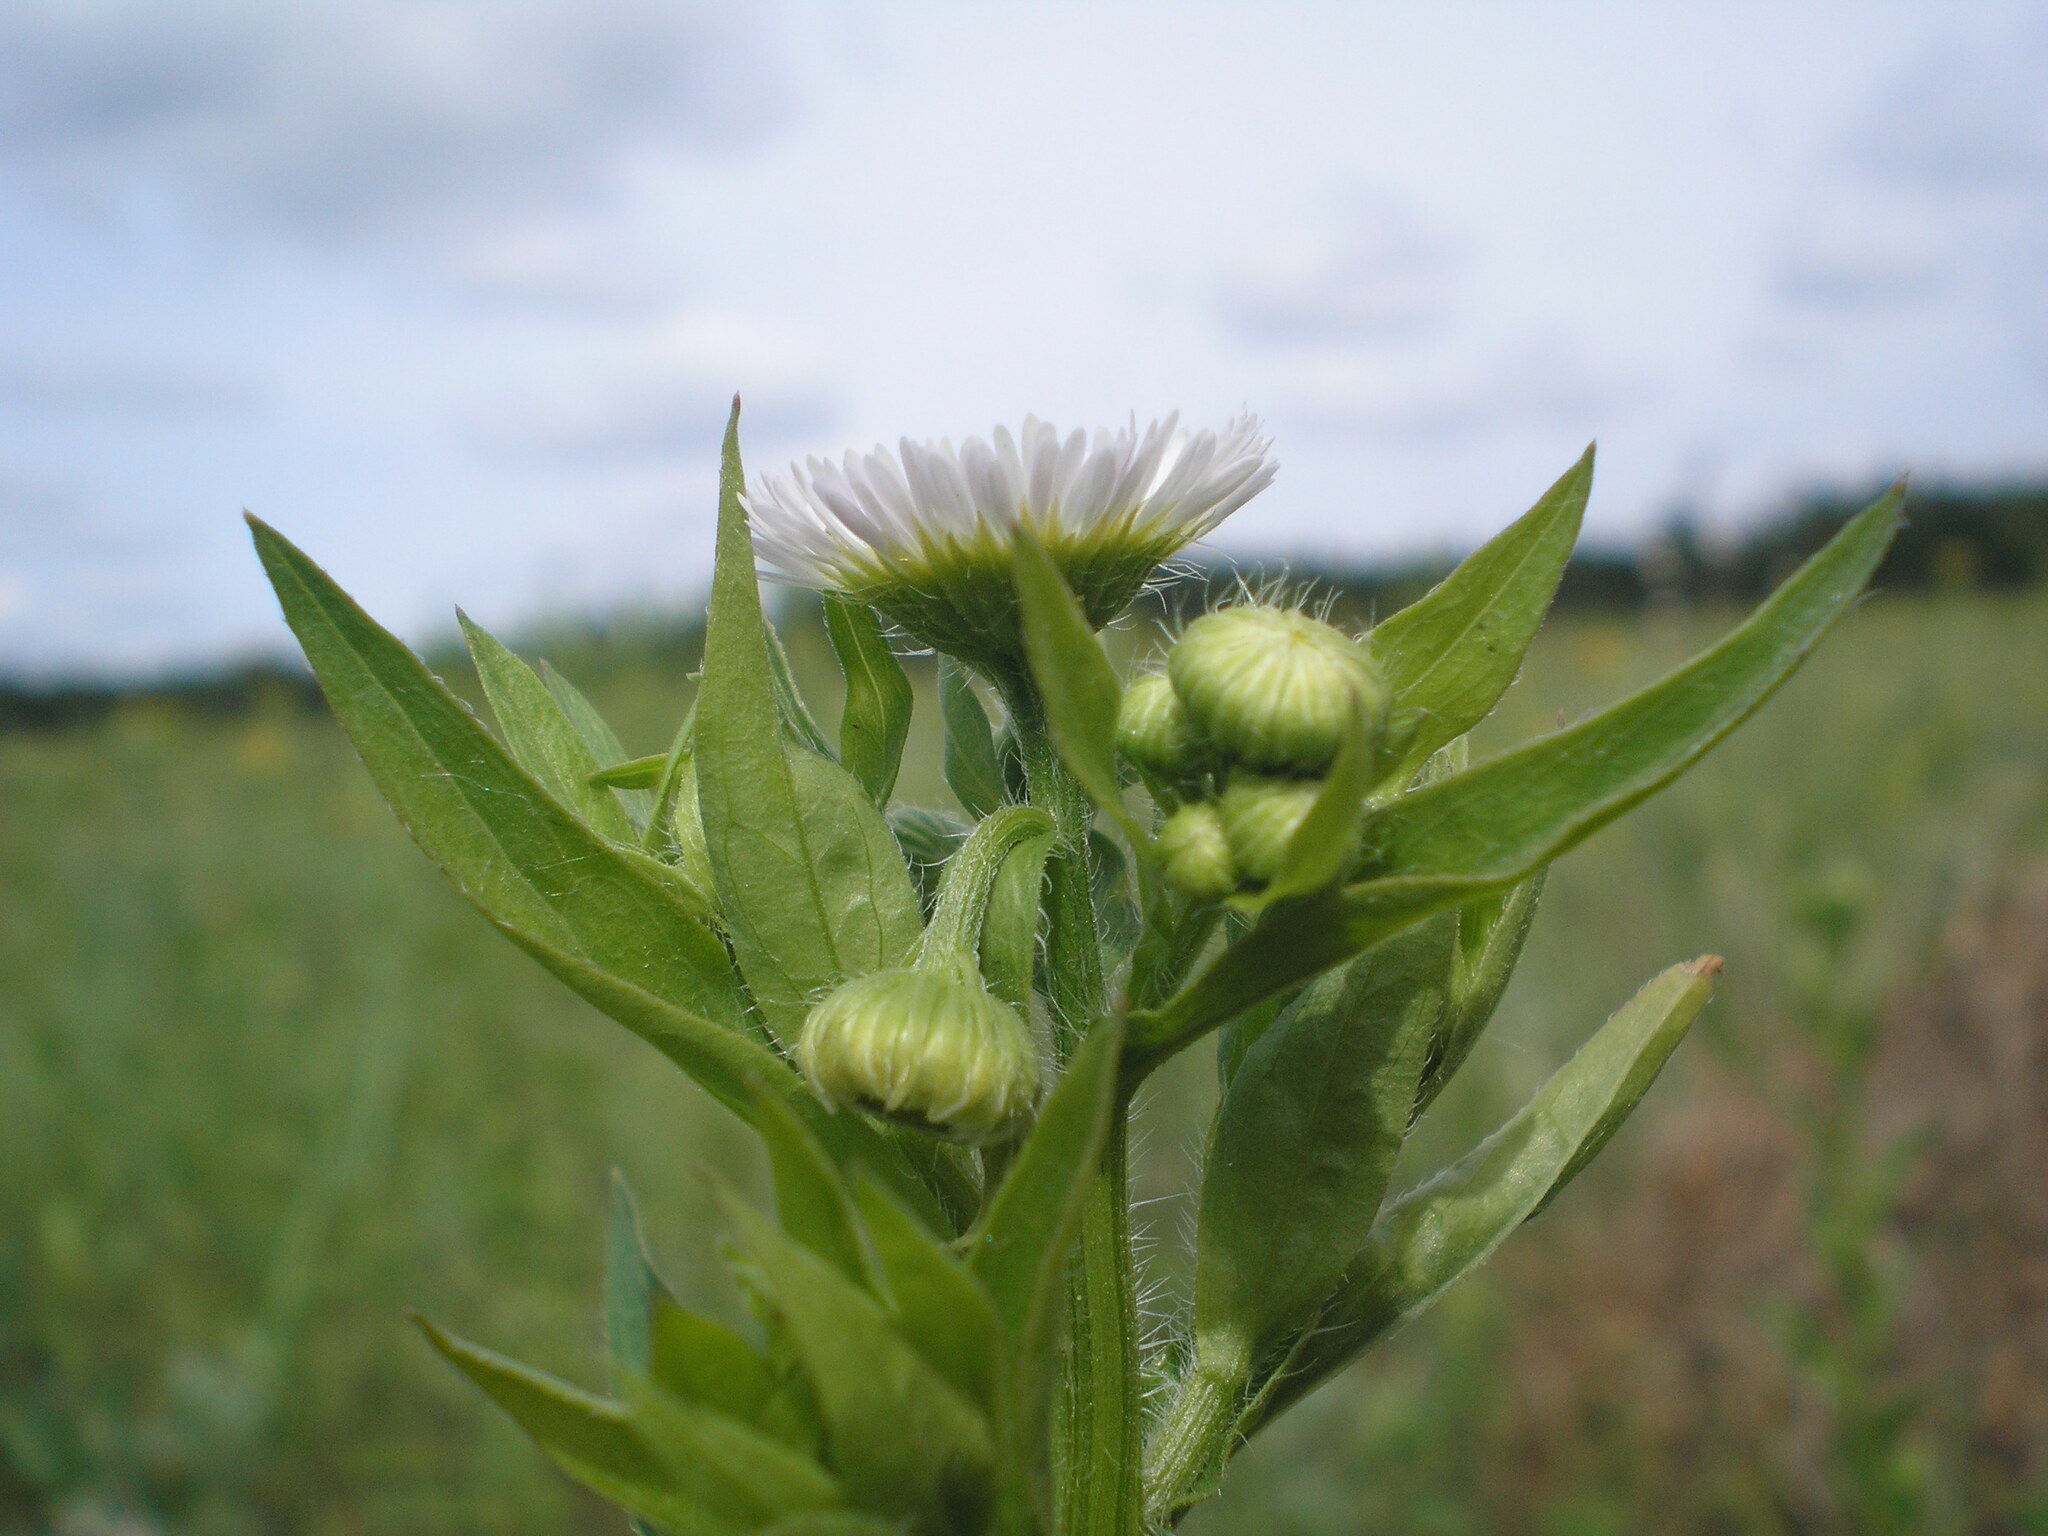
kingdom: Plantae
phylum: Tracheophyta
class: Magnoliopsida
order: Asterales
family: Asteraceae
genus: Erigeron
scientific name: Erigeron annuus
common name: Tall fleabane
